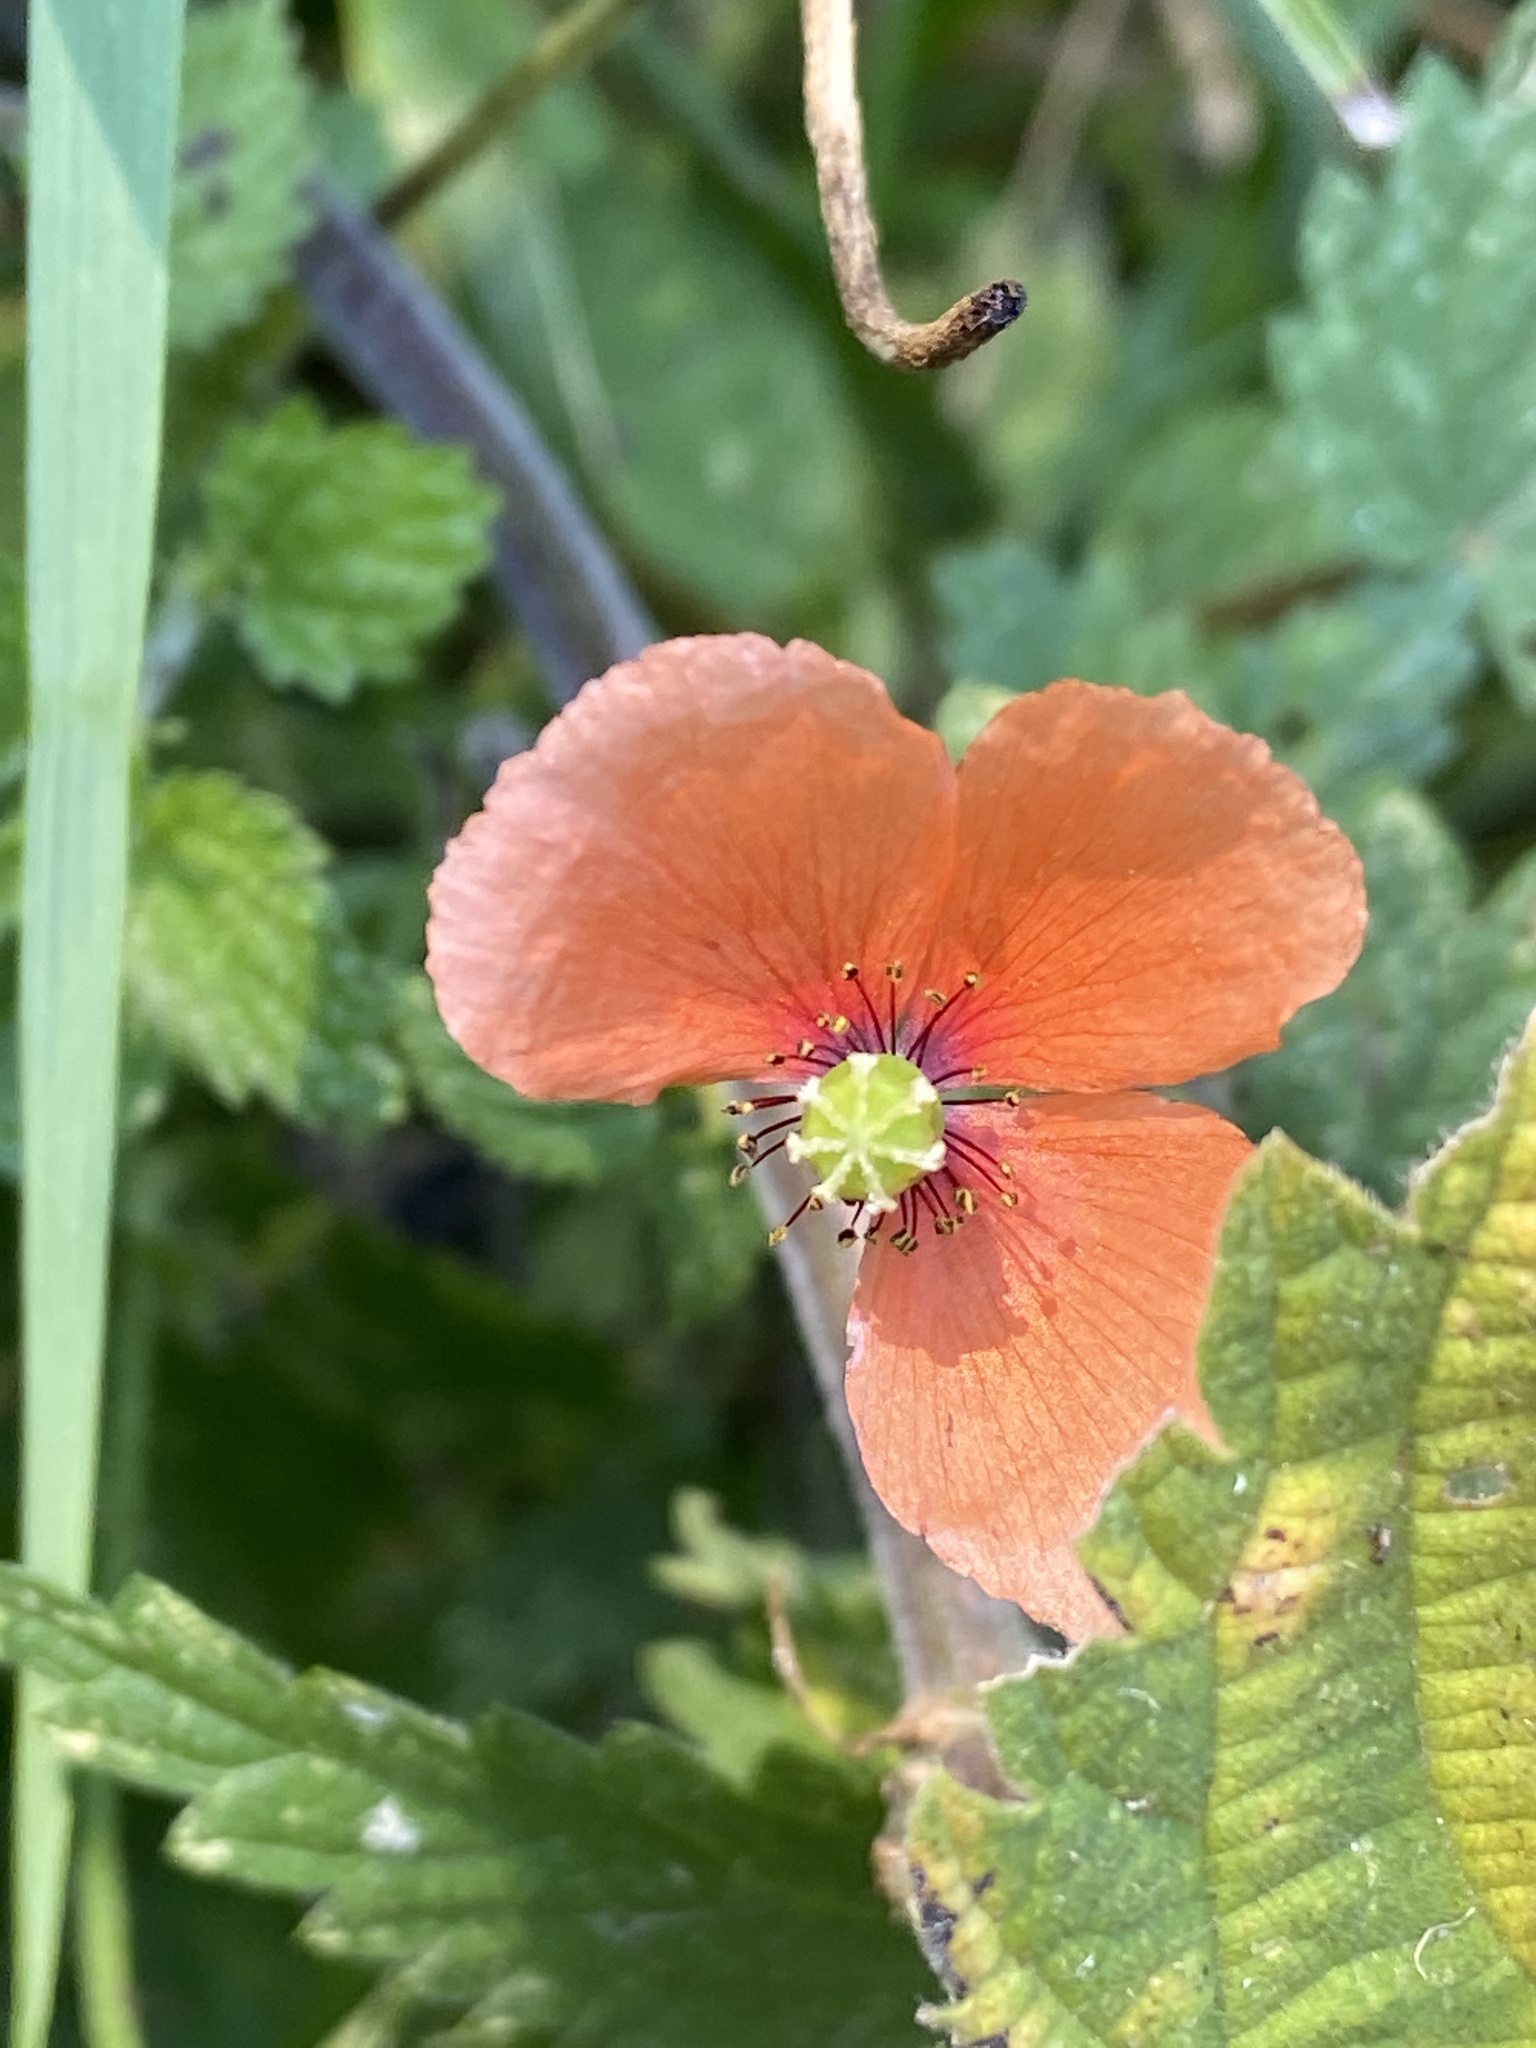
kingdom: Plantae
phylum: Tracheophyta
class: Magnoliopsida
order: Ranunculales
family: Papaveraceae
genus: Papaver
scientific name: Papaver dubium
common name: Long-headed poppy
